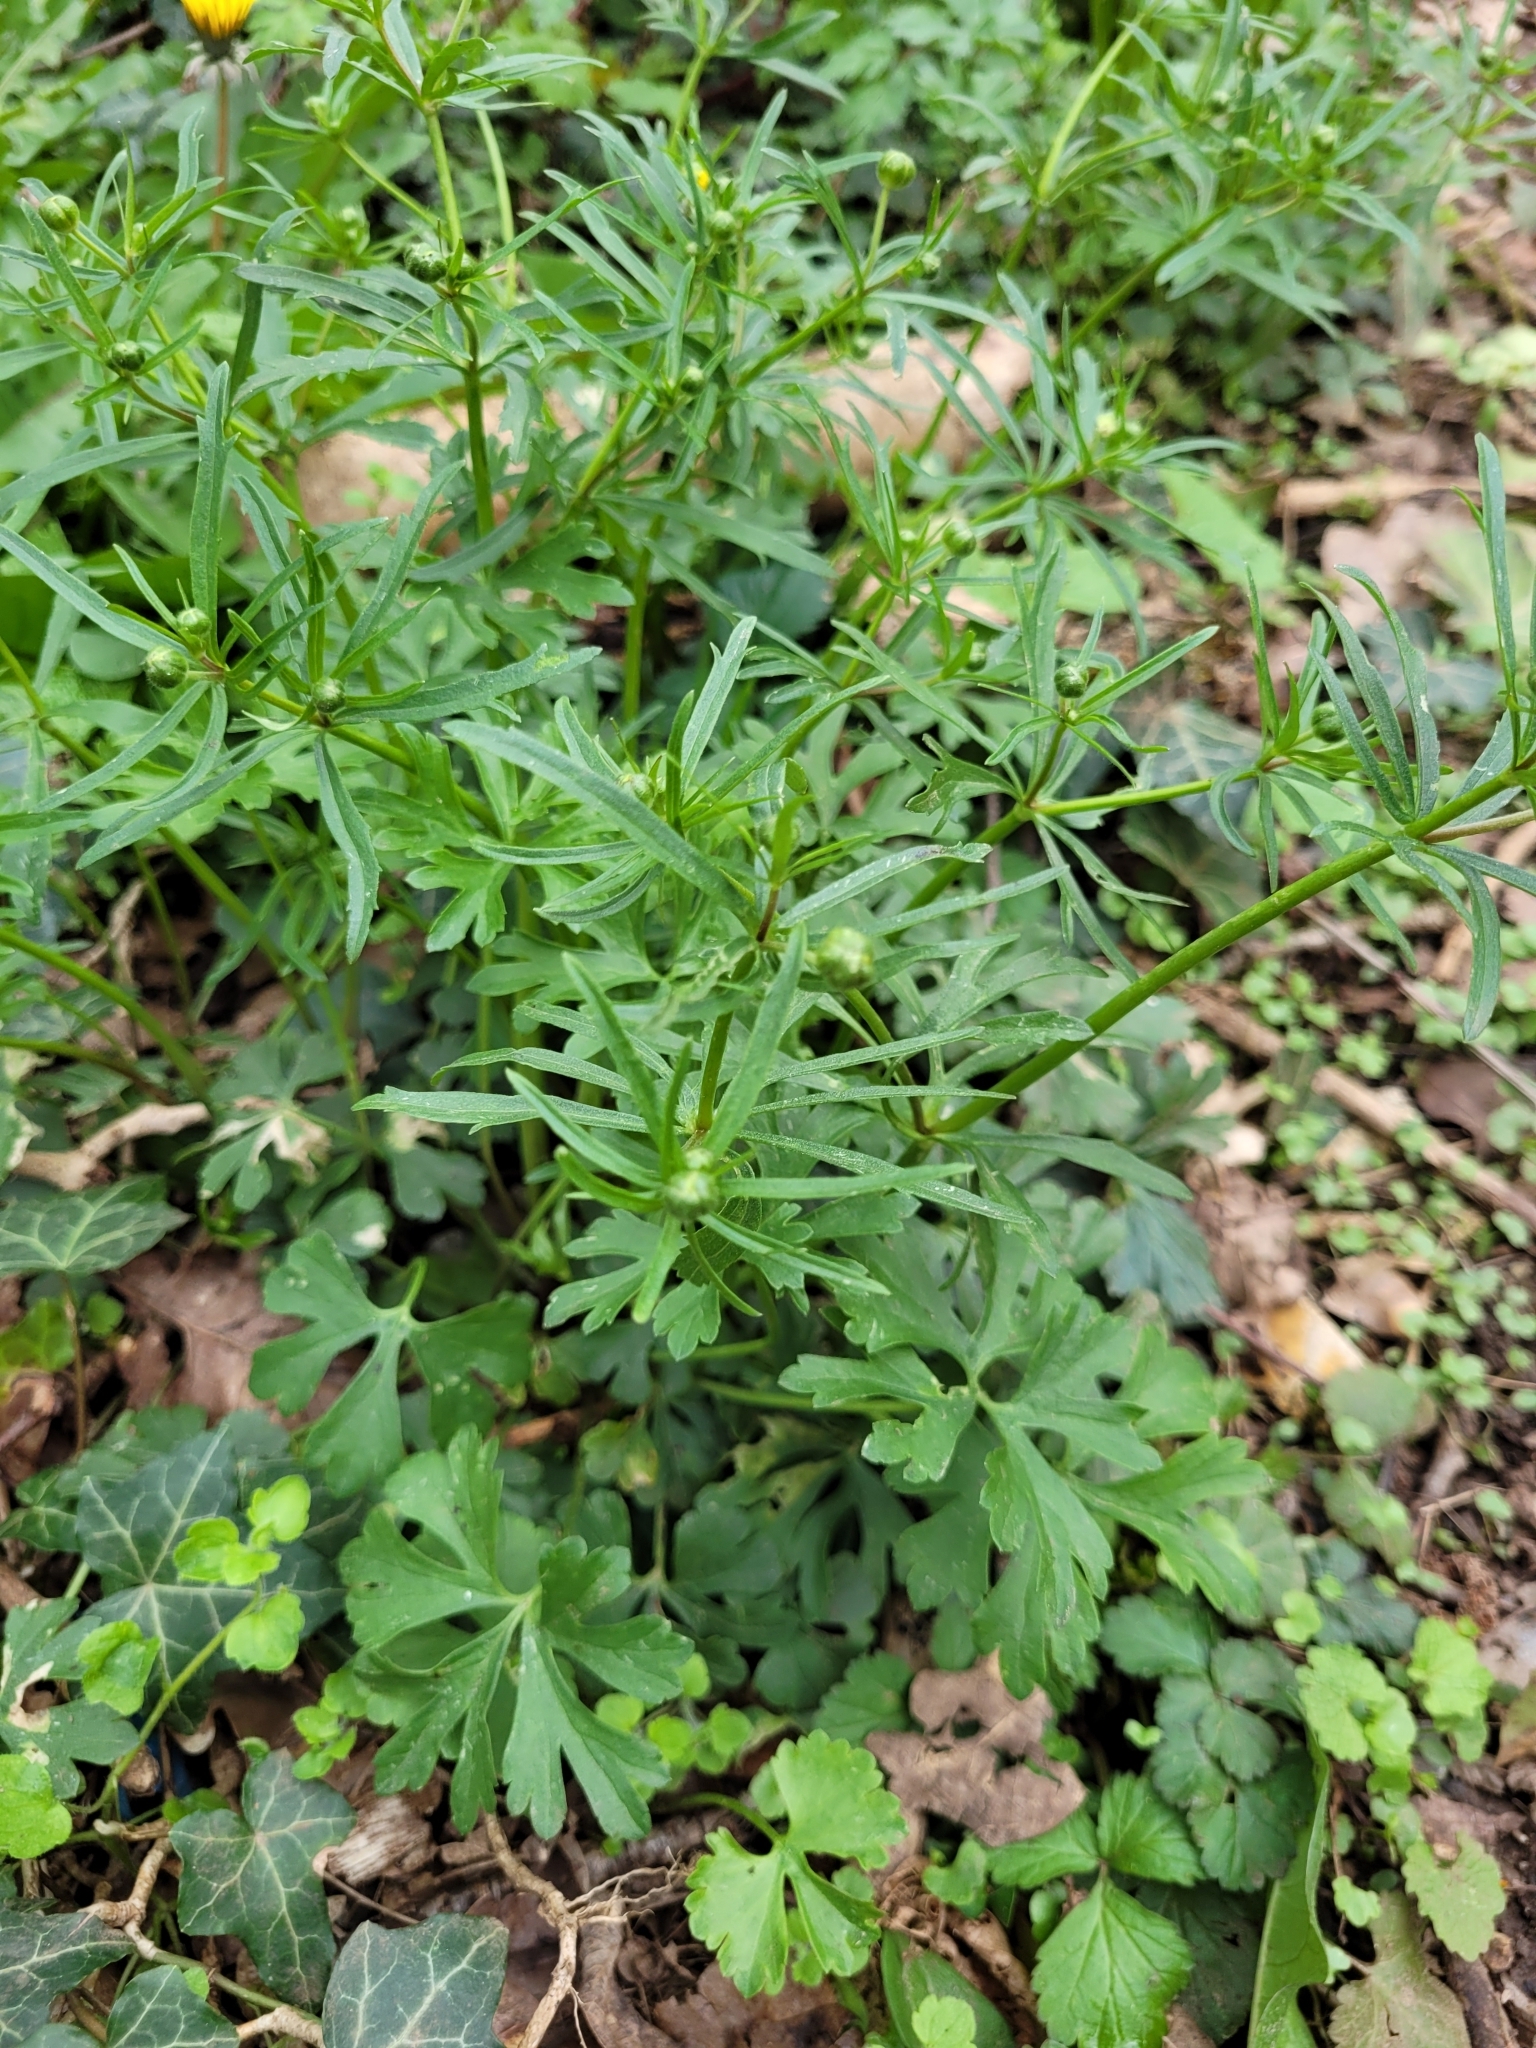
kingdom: Plantae
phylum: Tracheophyta
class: Magnoliopsida
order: Ranunculales
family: Ranunculaceae
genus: Ranunculus
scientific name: Ranunculus auricomus
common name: Goldilocks buttercup
